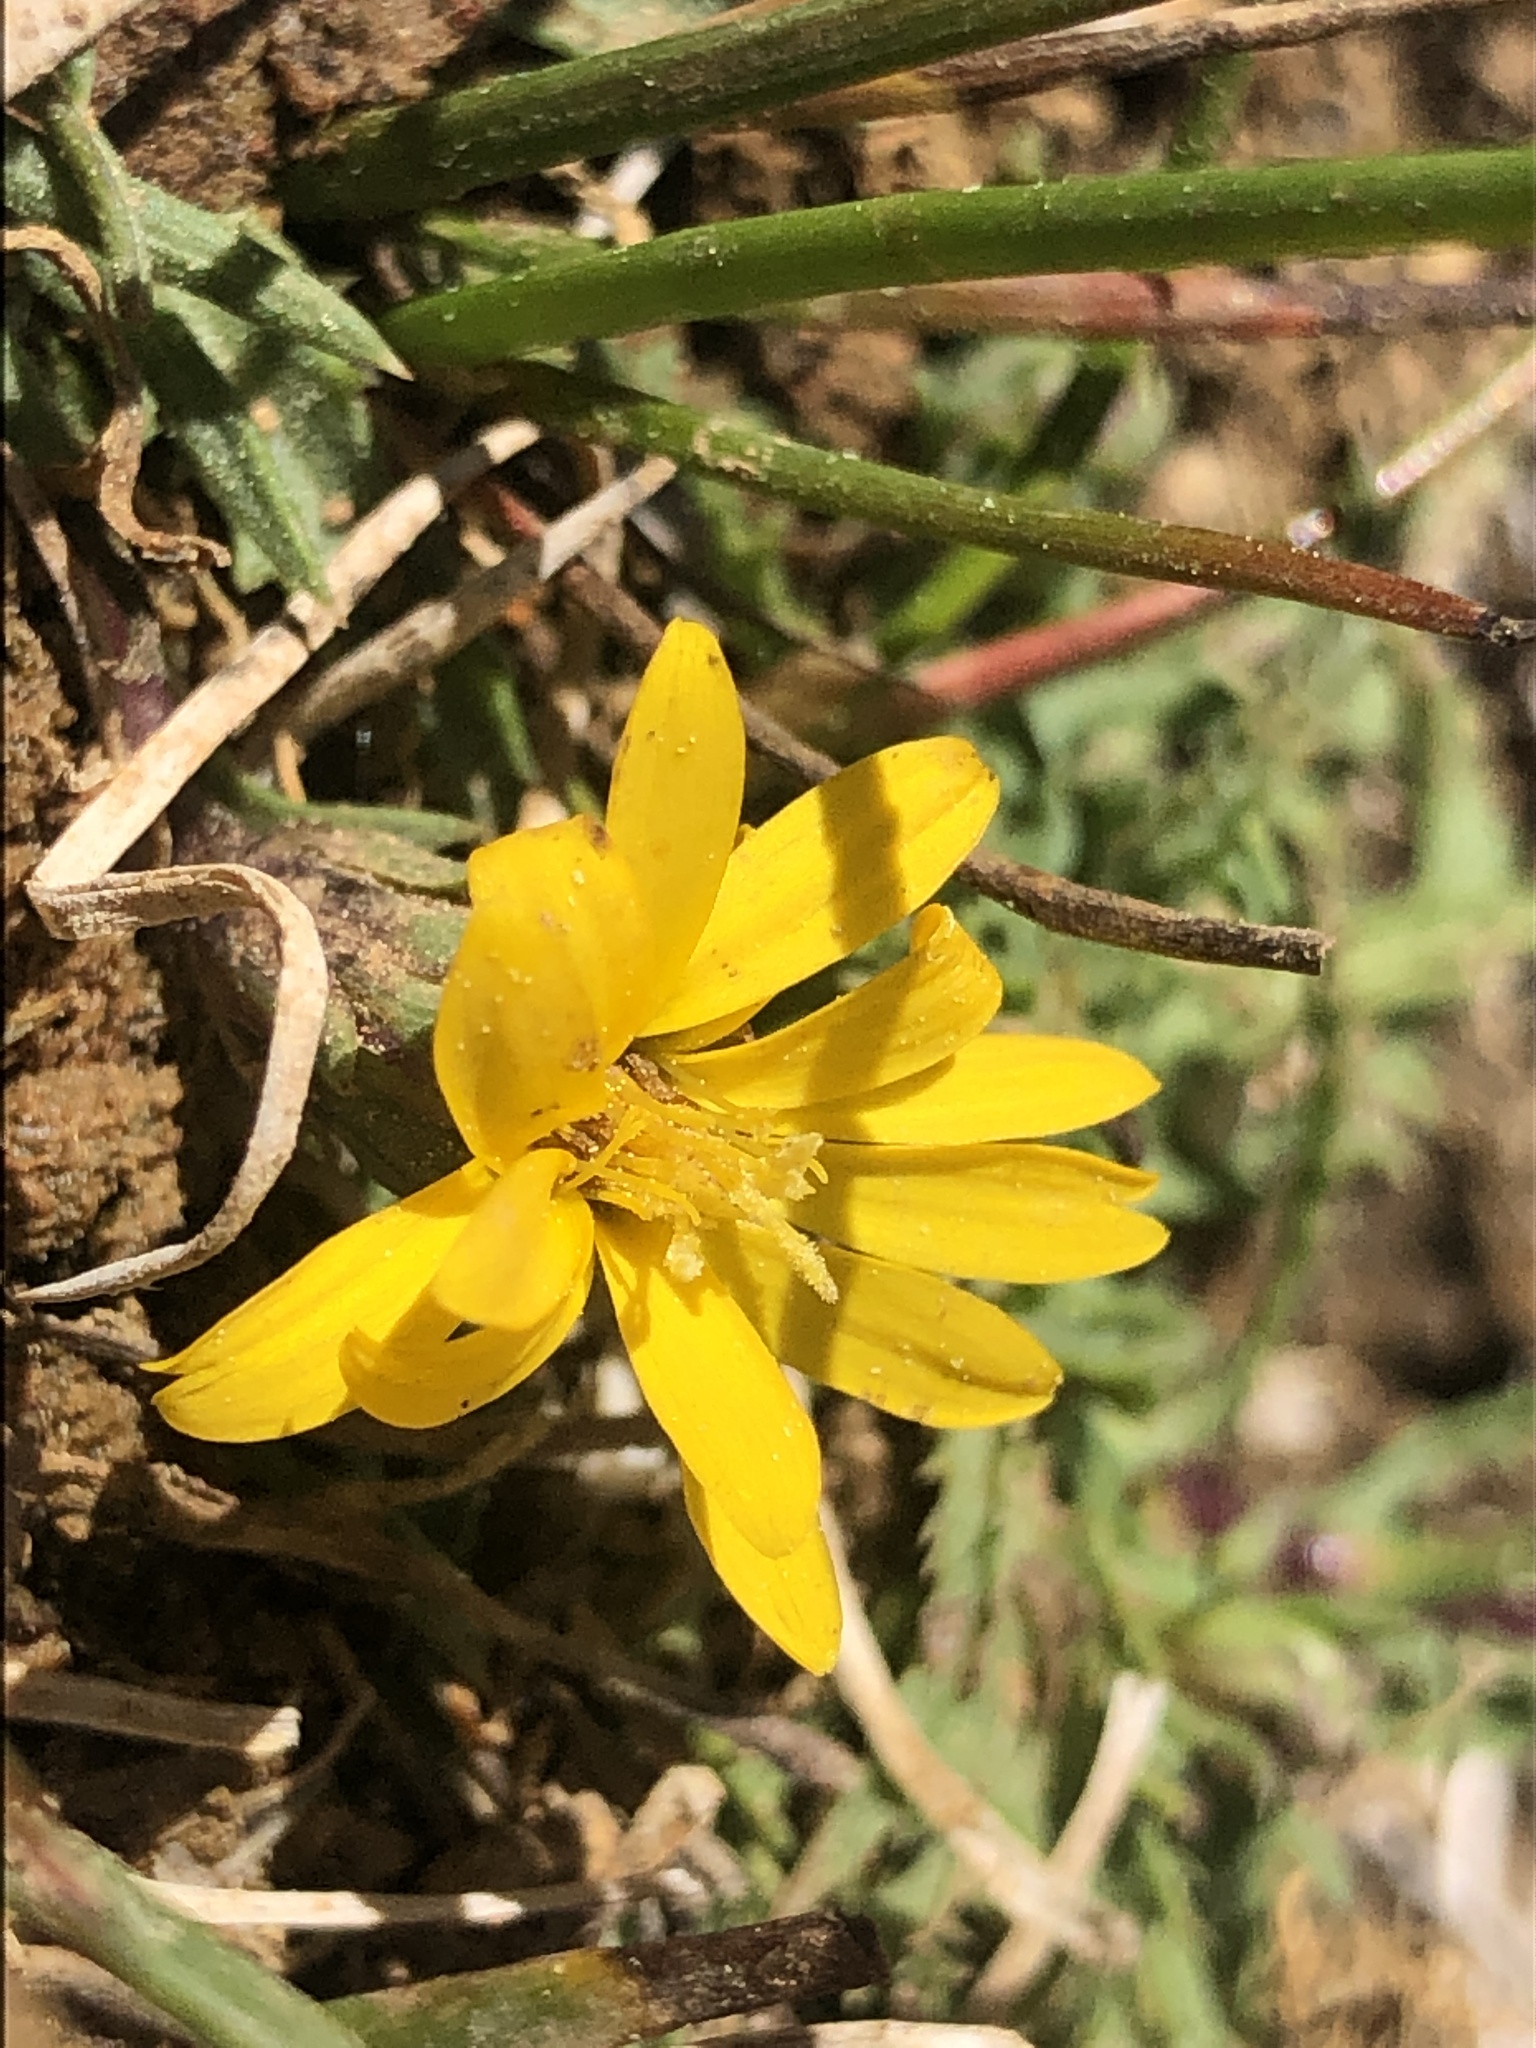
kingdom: Plantae
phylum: Tracheophyta
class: Magnoliopsida
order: Asterales
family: Asteraceae
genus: Pyrrocoma
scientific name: Pyrrocoma apargioides
